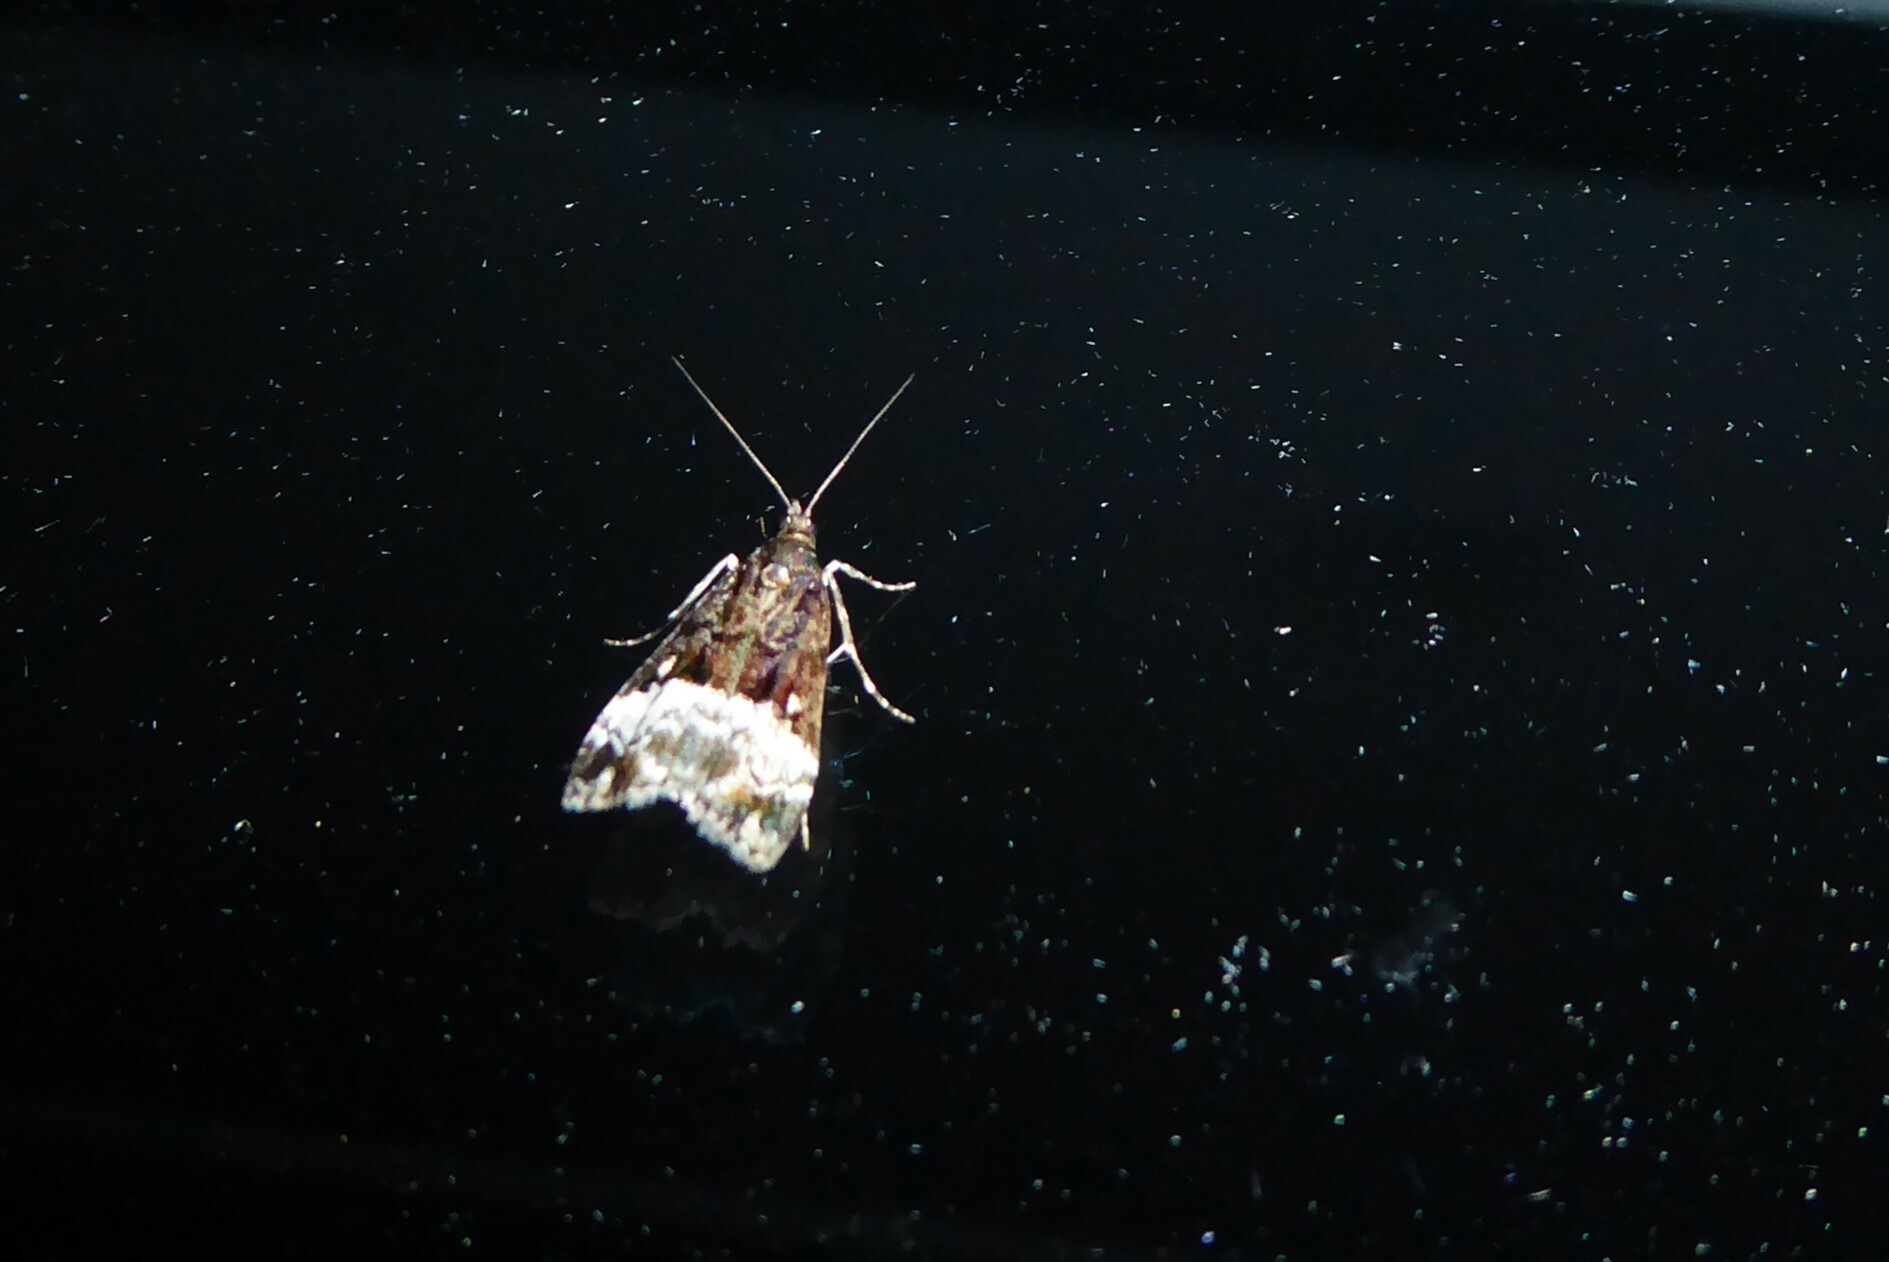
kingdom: Animalia
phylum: Arthropoda
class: Insecta
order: Lepidoptera
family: Crambidae
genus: Scoparia
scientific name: Scoparia minusculalis
